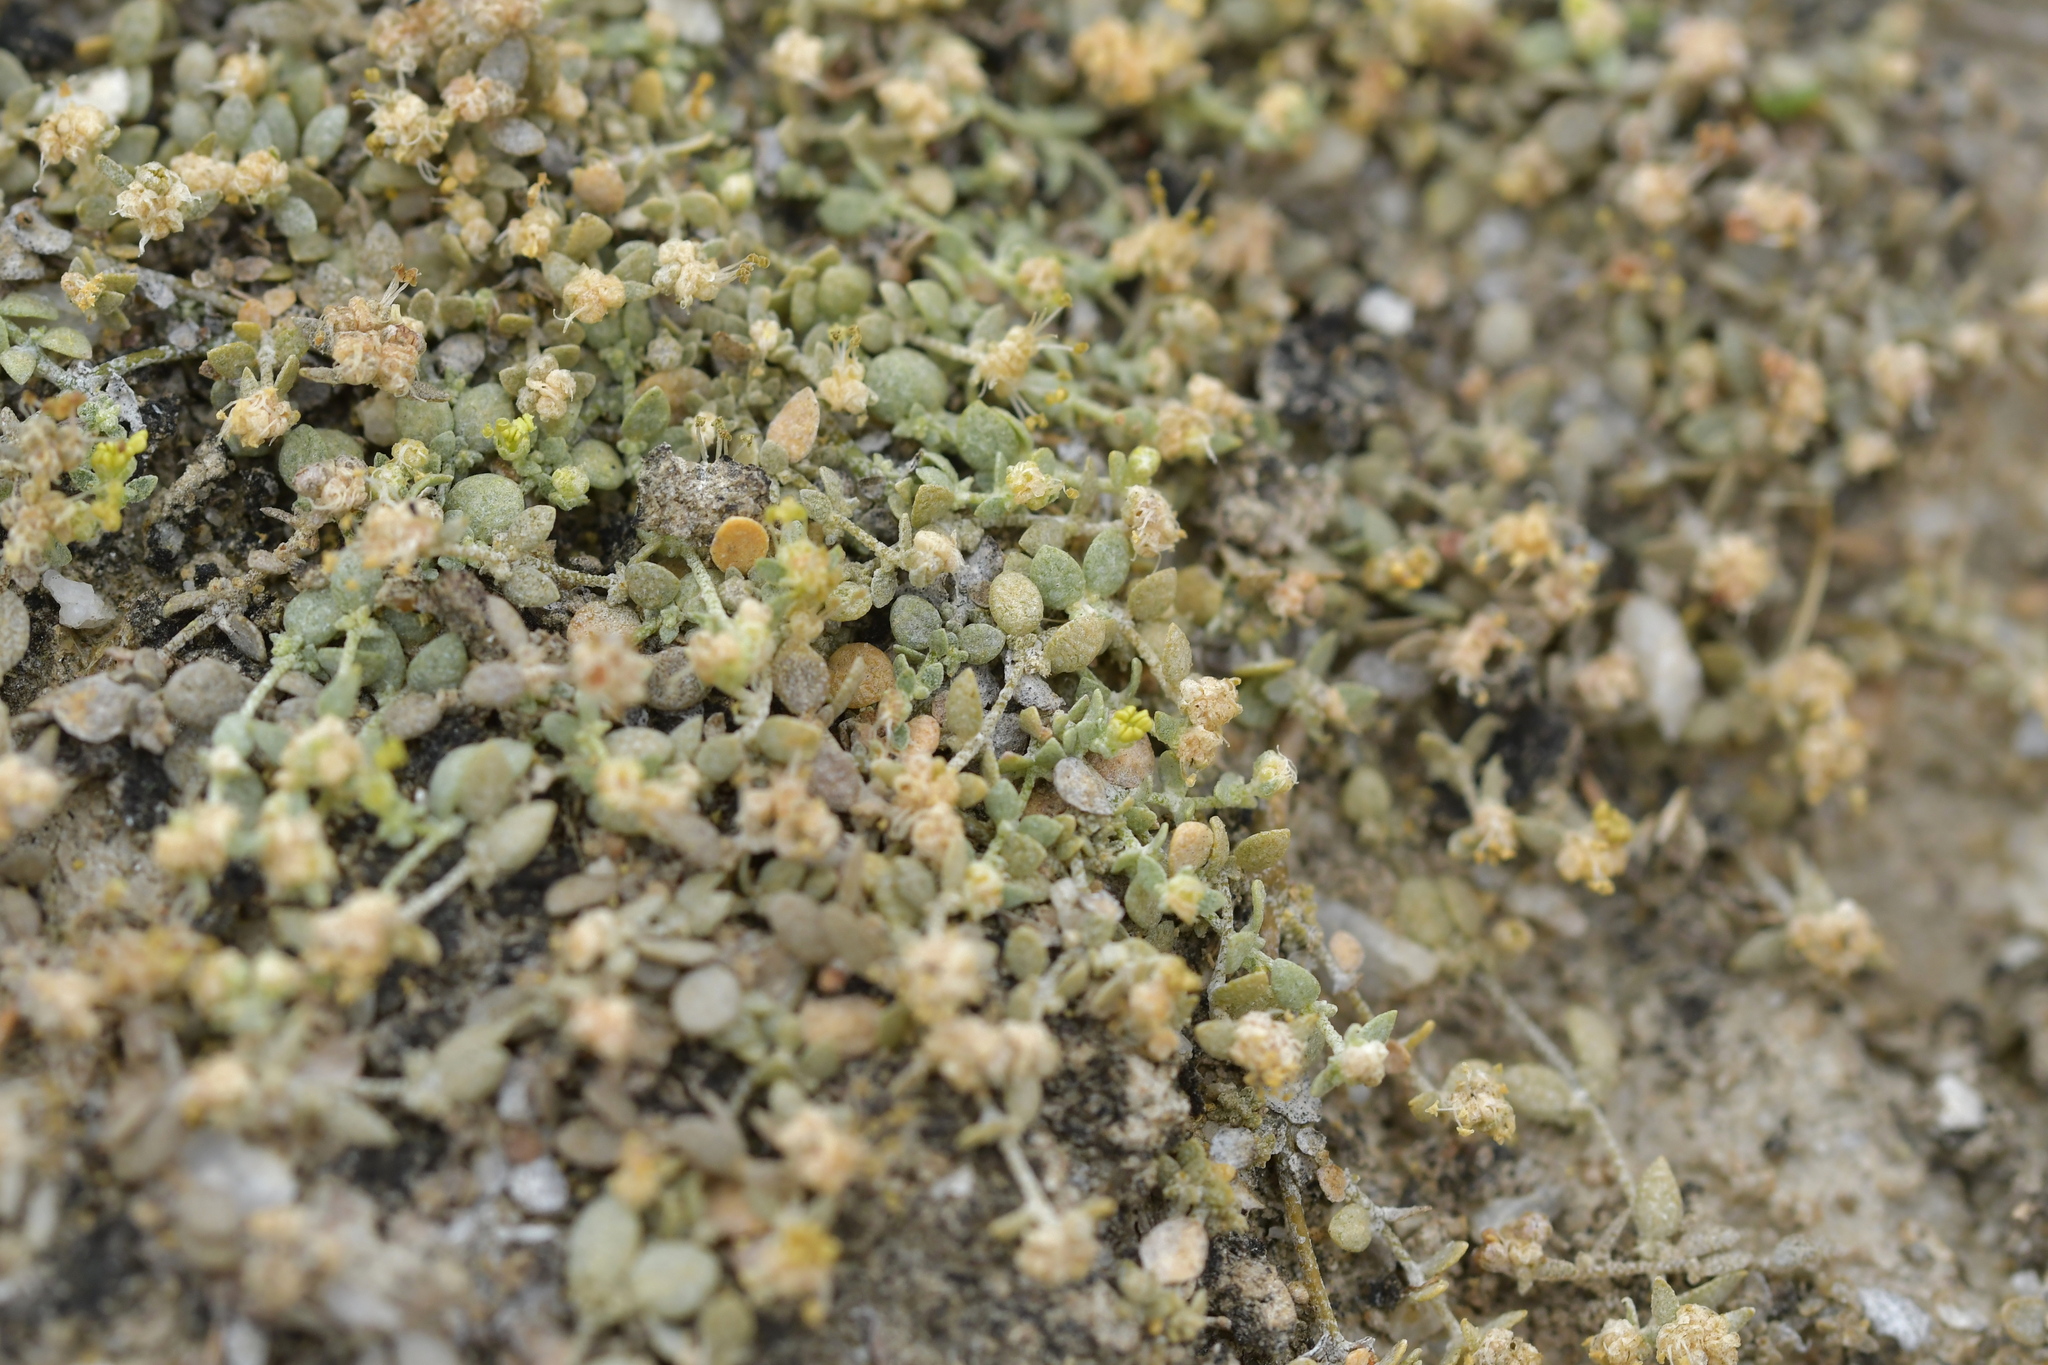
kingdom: Plantae
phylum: Tracheophyta
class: Magnoliopsida
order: Caryophyllales
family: Amaranthaceae
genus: Atriplex
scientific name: Atriplex buchananii
